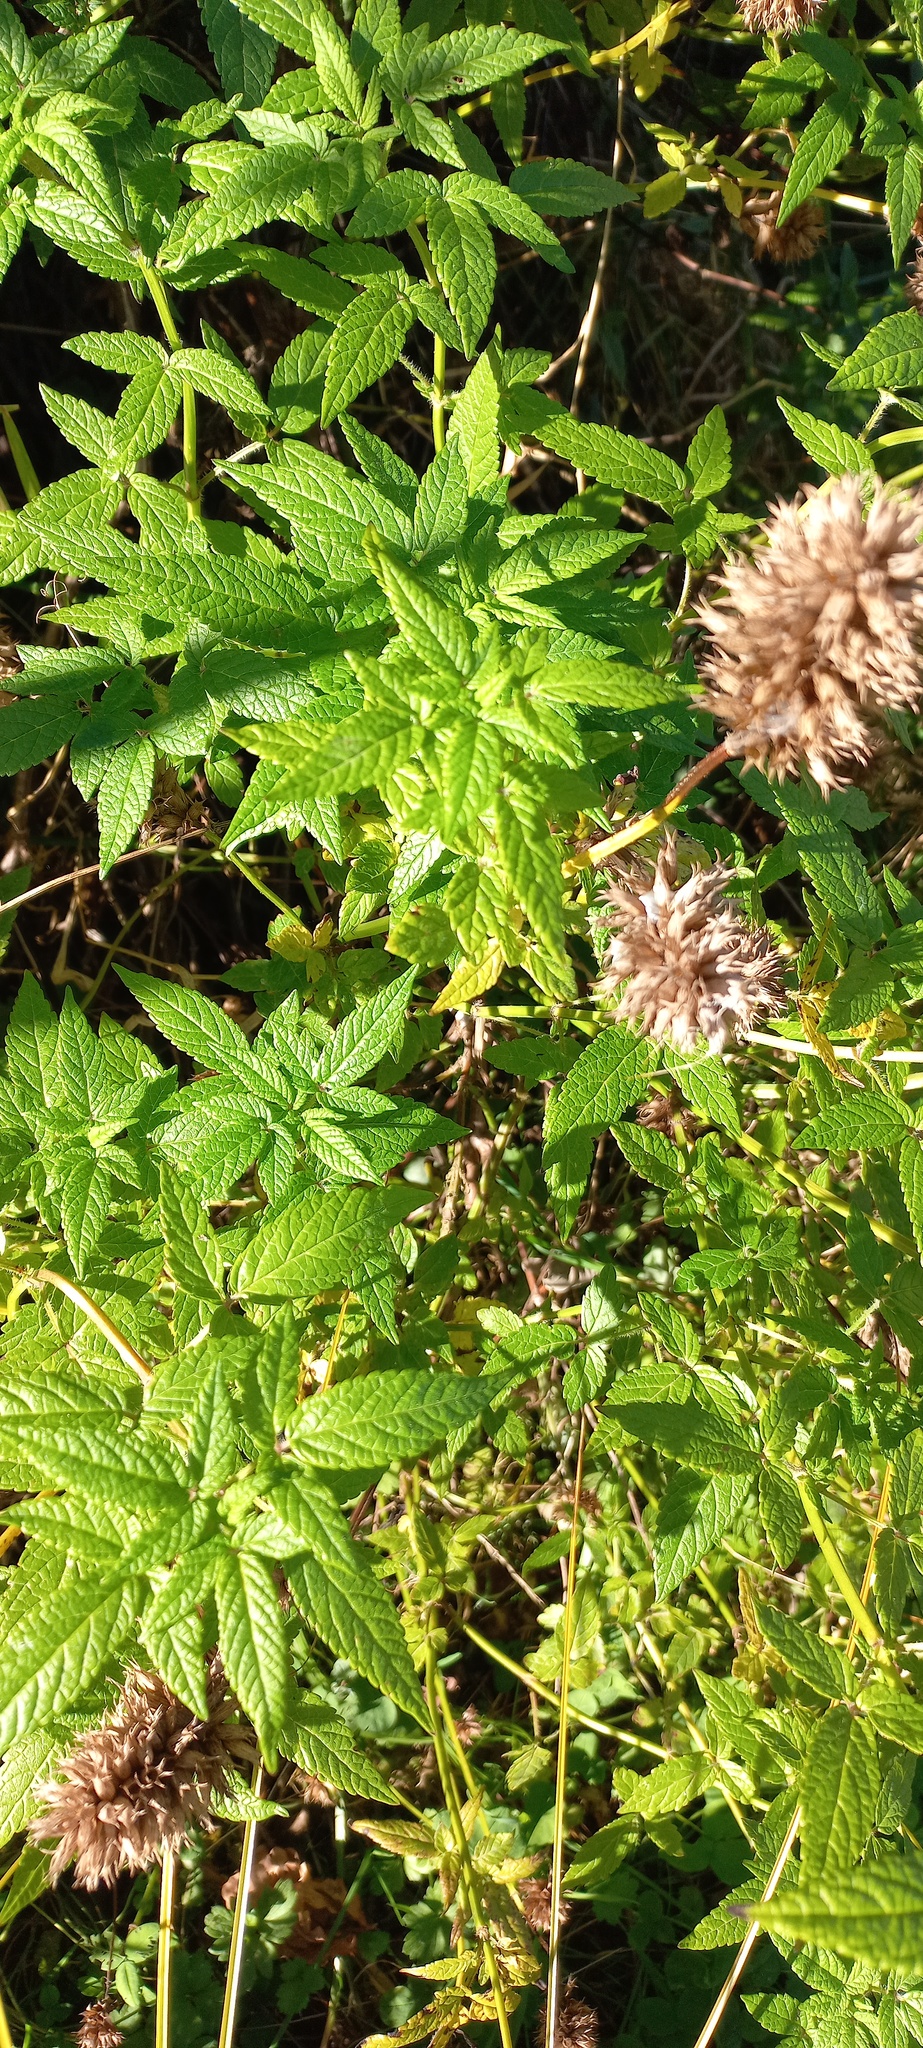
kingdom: Plantae
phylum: Tracheophyta
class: Magnoliopsida
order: Lamiales
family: Lamiaceae
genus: Cedronella
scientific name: Cedronella canariensis
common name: Canary islands balm
